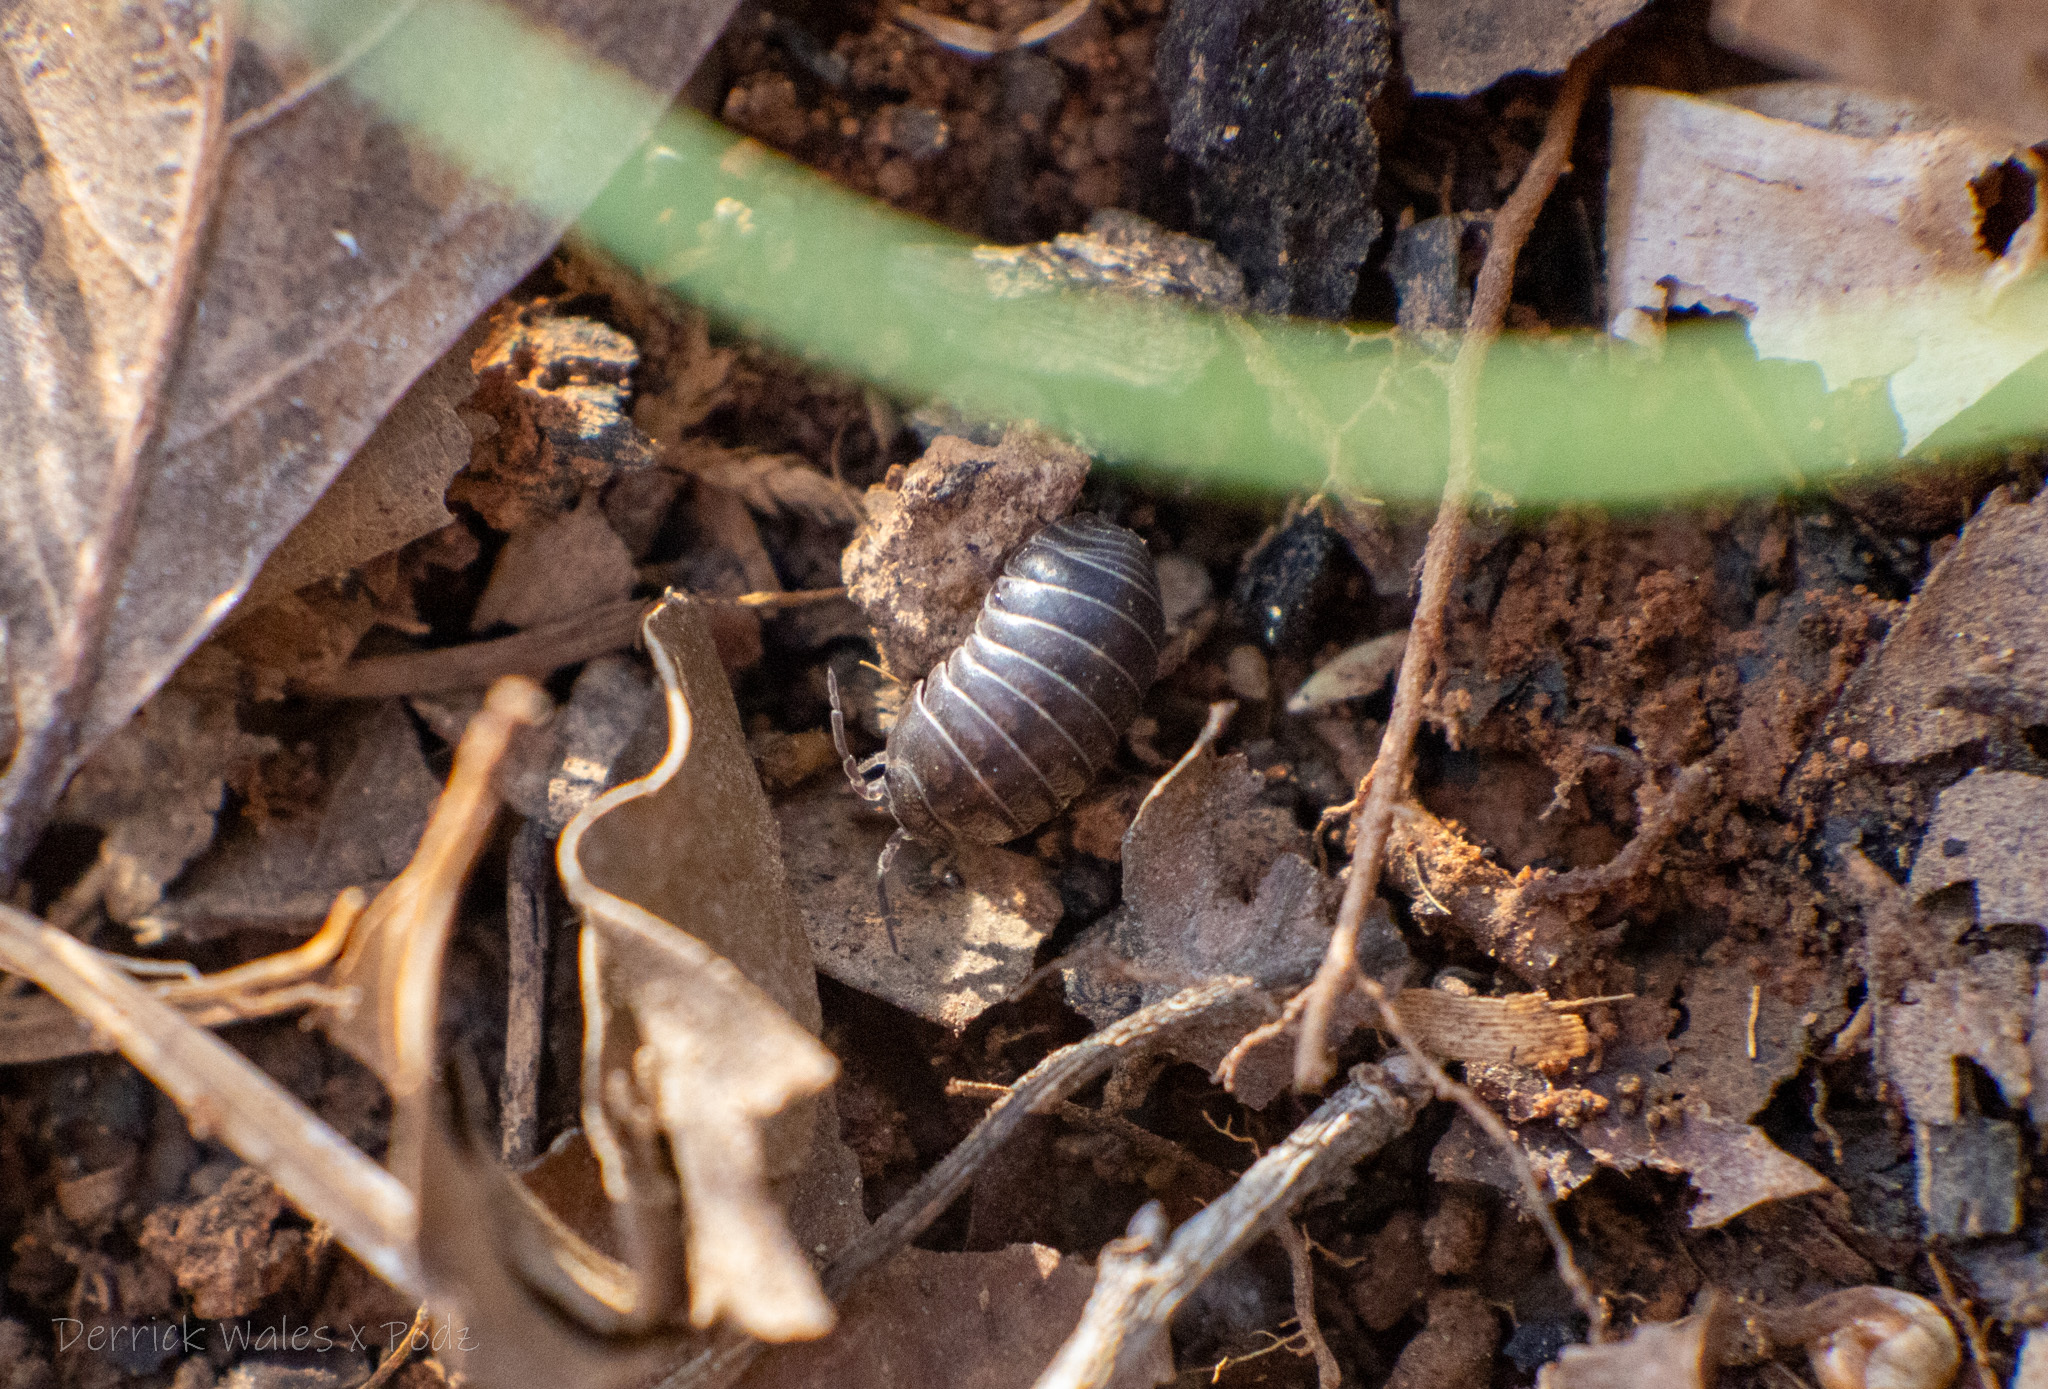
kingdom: Animalia
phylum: Arthropoda
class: Malacostraca
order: Isopoda
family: Armadillidiidae
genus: Armadillidium
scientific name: Armadillidium vulgare
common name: Common pill woodlouse
